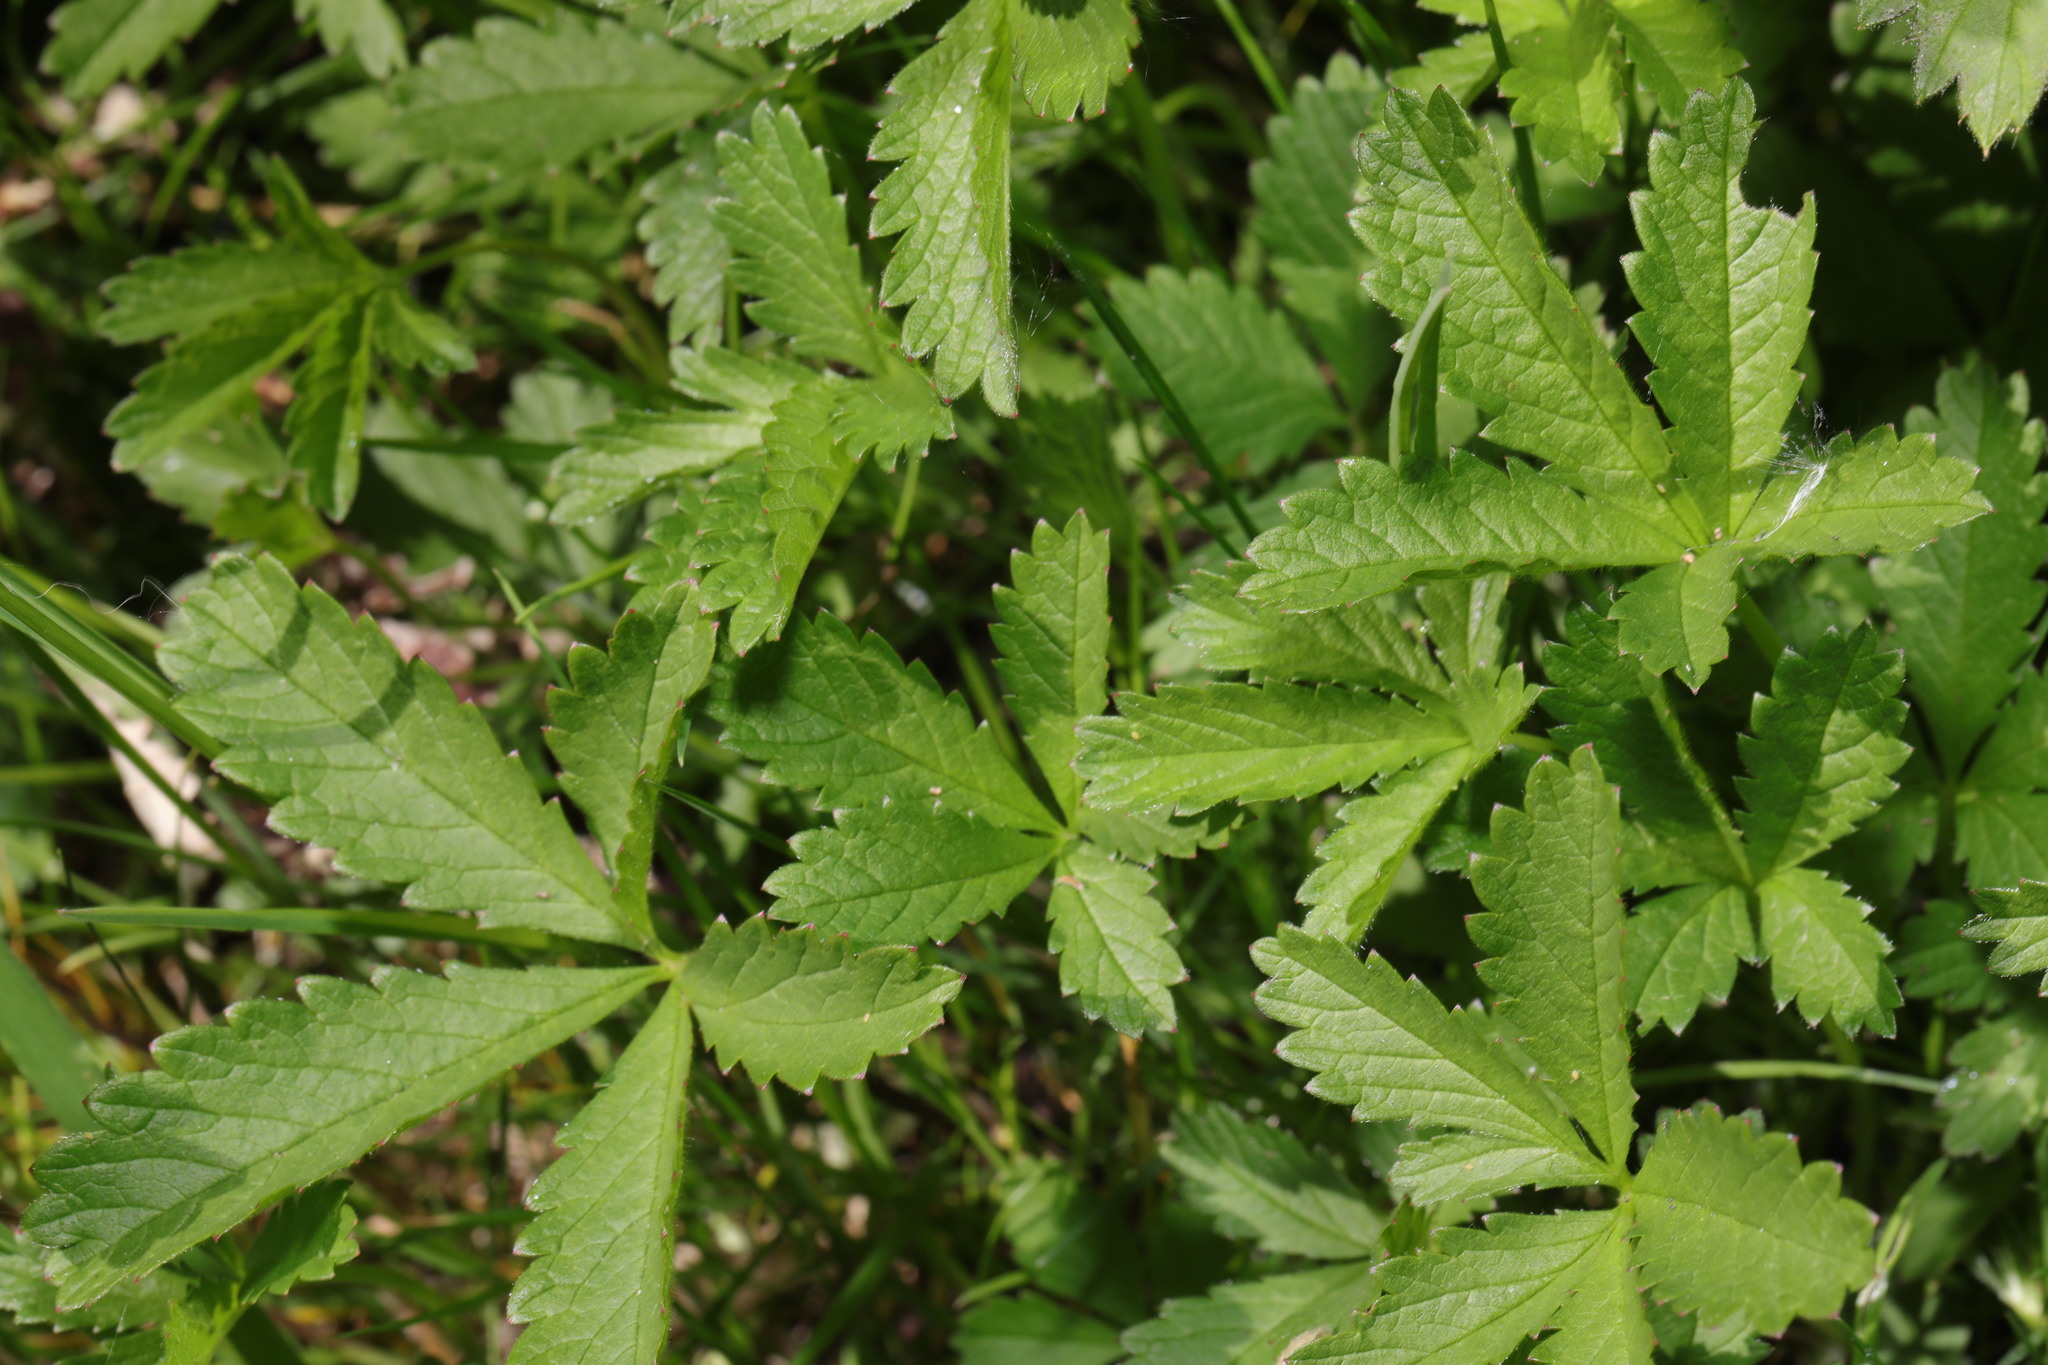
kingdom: Plantae
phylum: Tracheophyta
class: Magnoliopsida
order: Rosales
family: Rosaceae
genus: Potentilla
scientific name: Potentilla reptans
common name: Creeping cinquefoil
